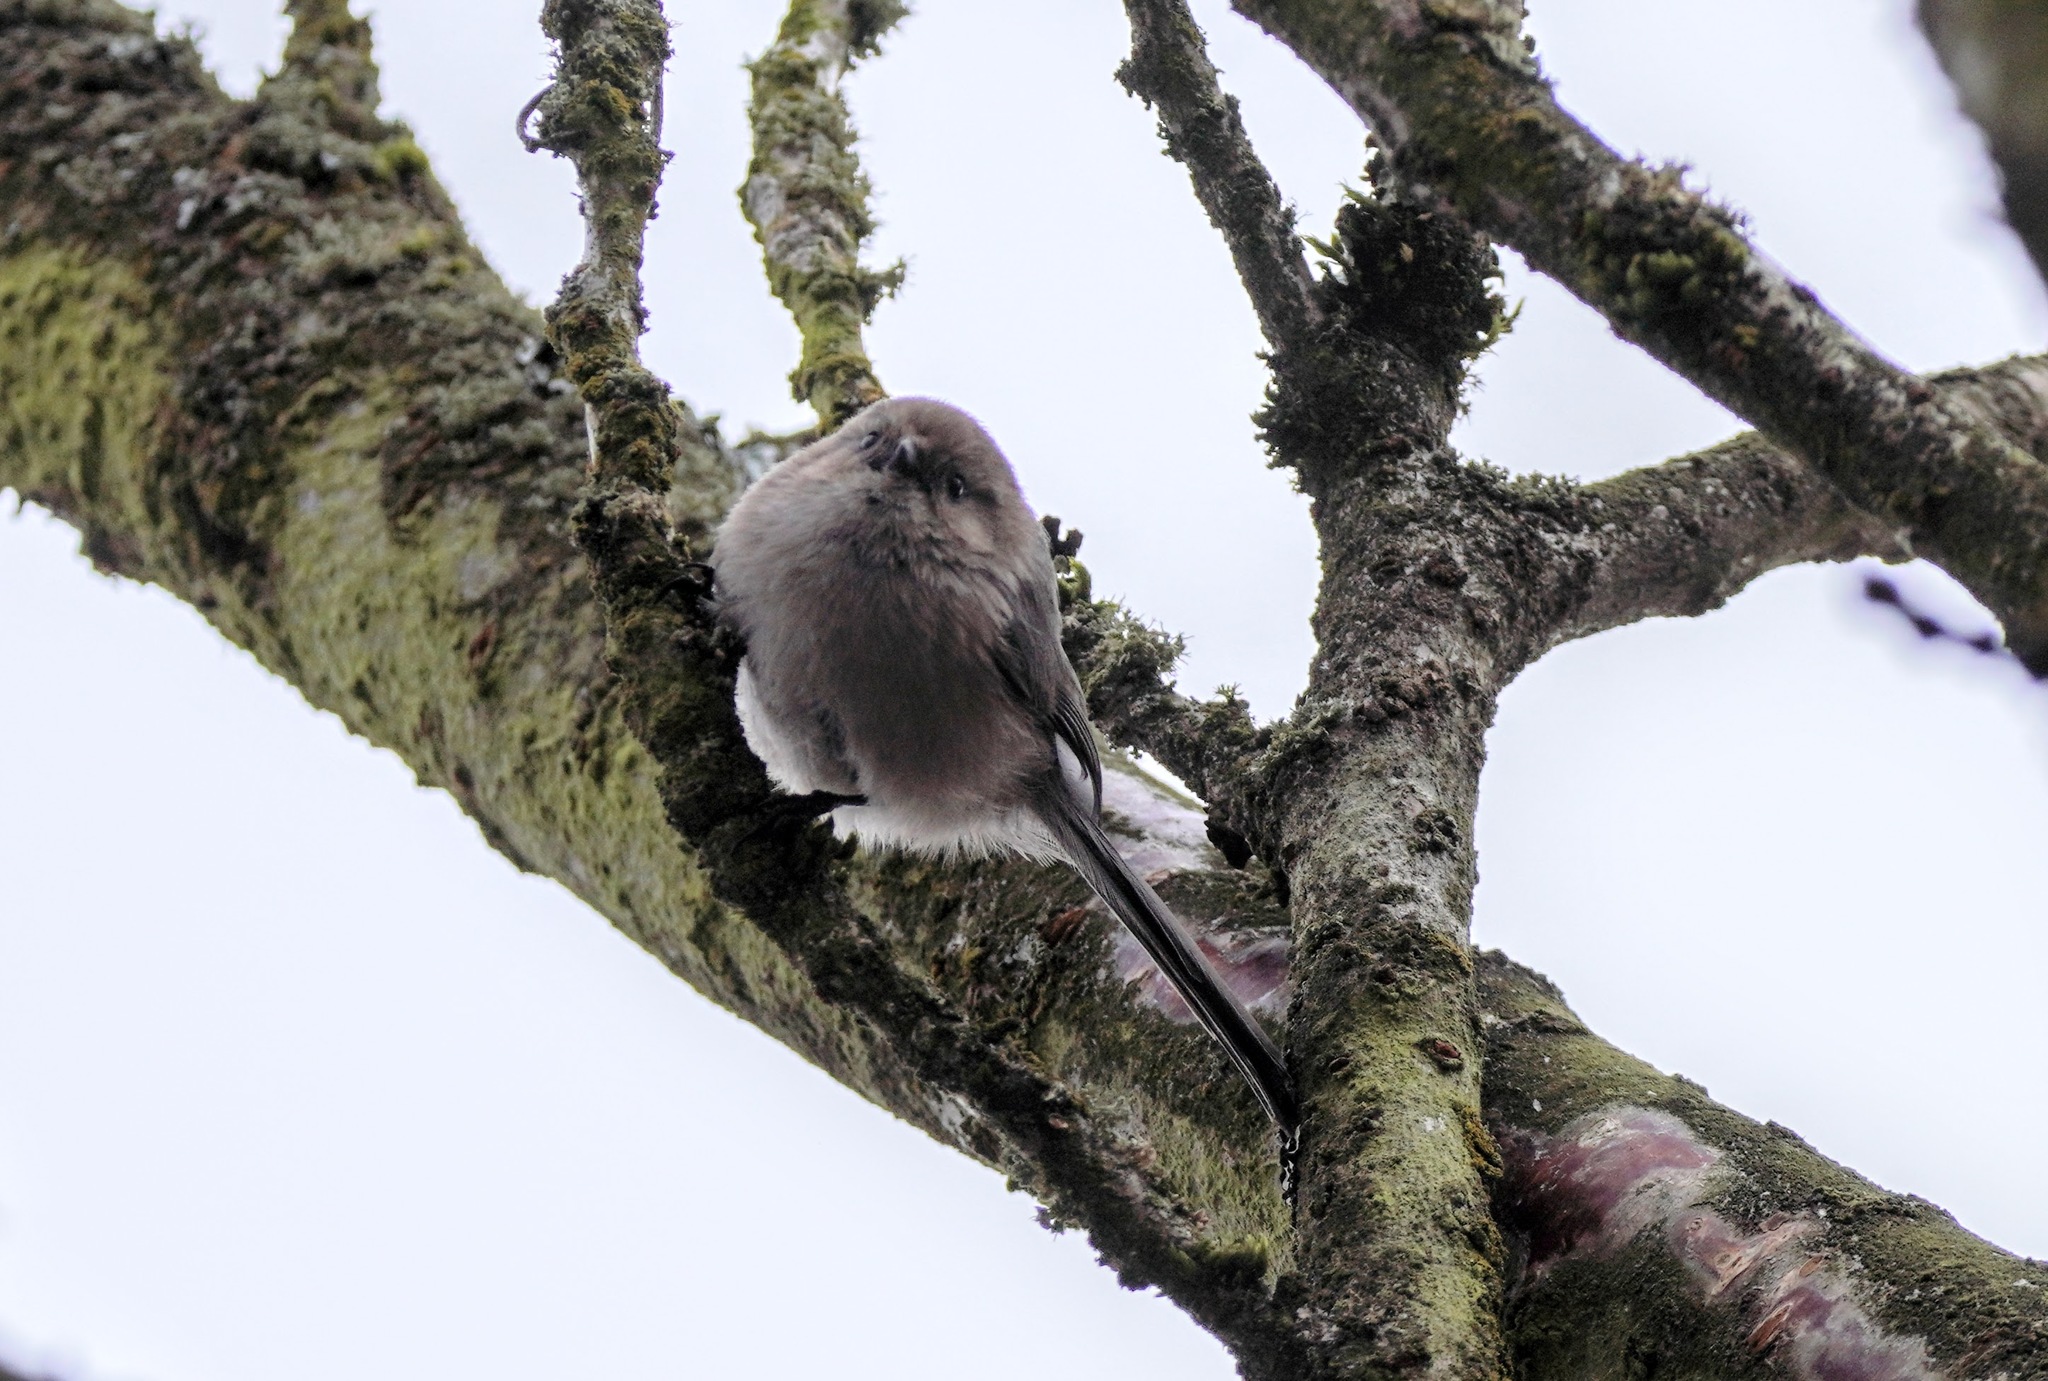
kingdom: Animalia
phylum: Chordata
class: Aves
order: Passeriformes
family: Aegithalidae
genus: Psaltriparus
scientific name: Psaltriparus minimus
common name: American bushtit
